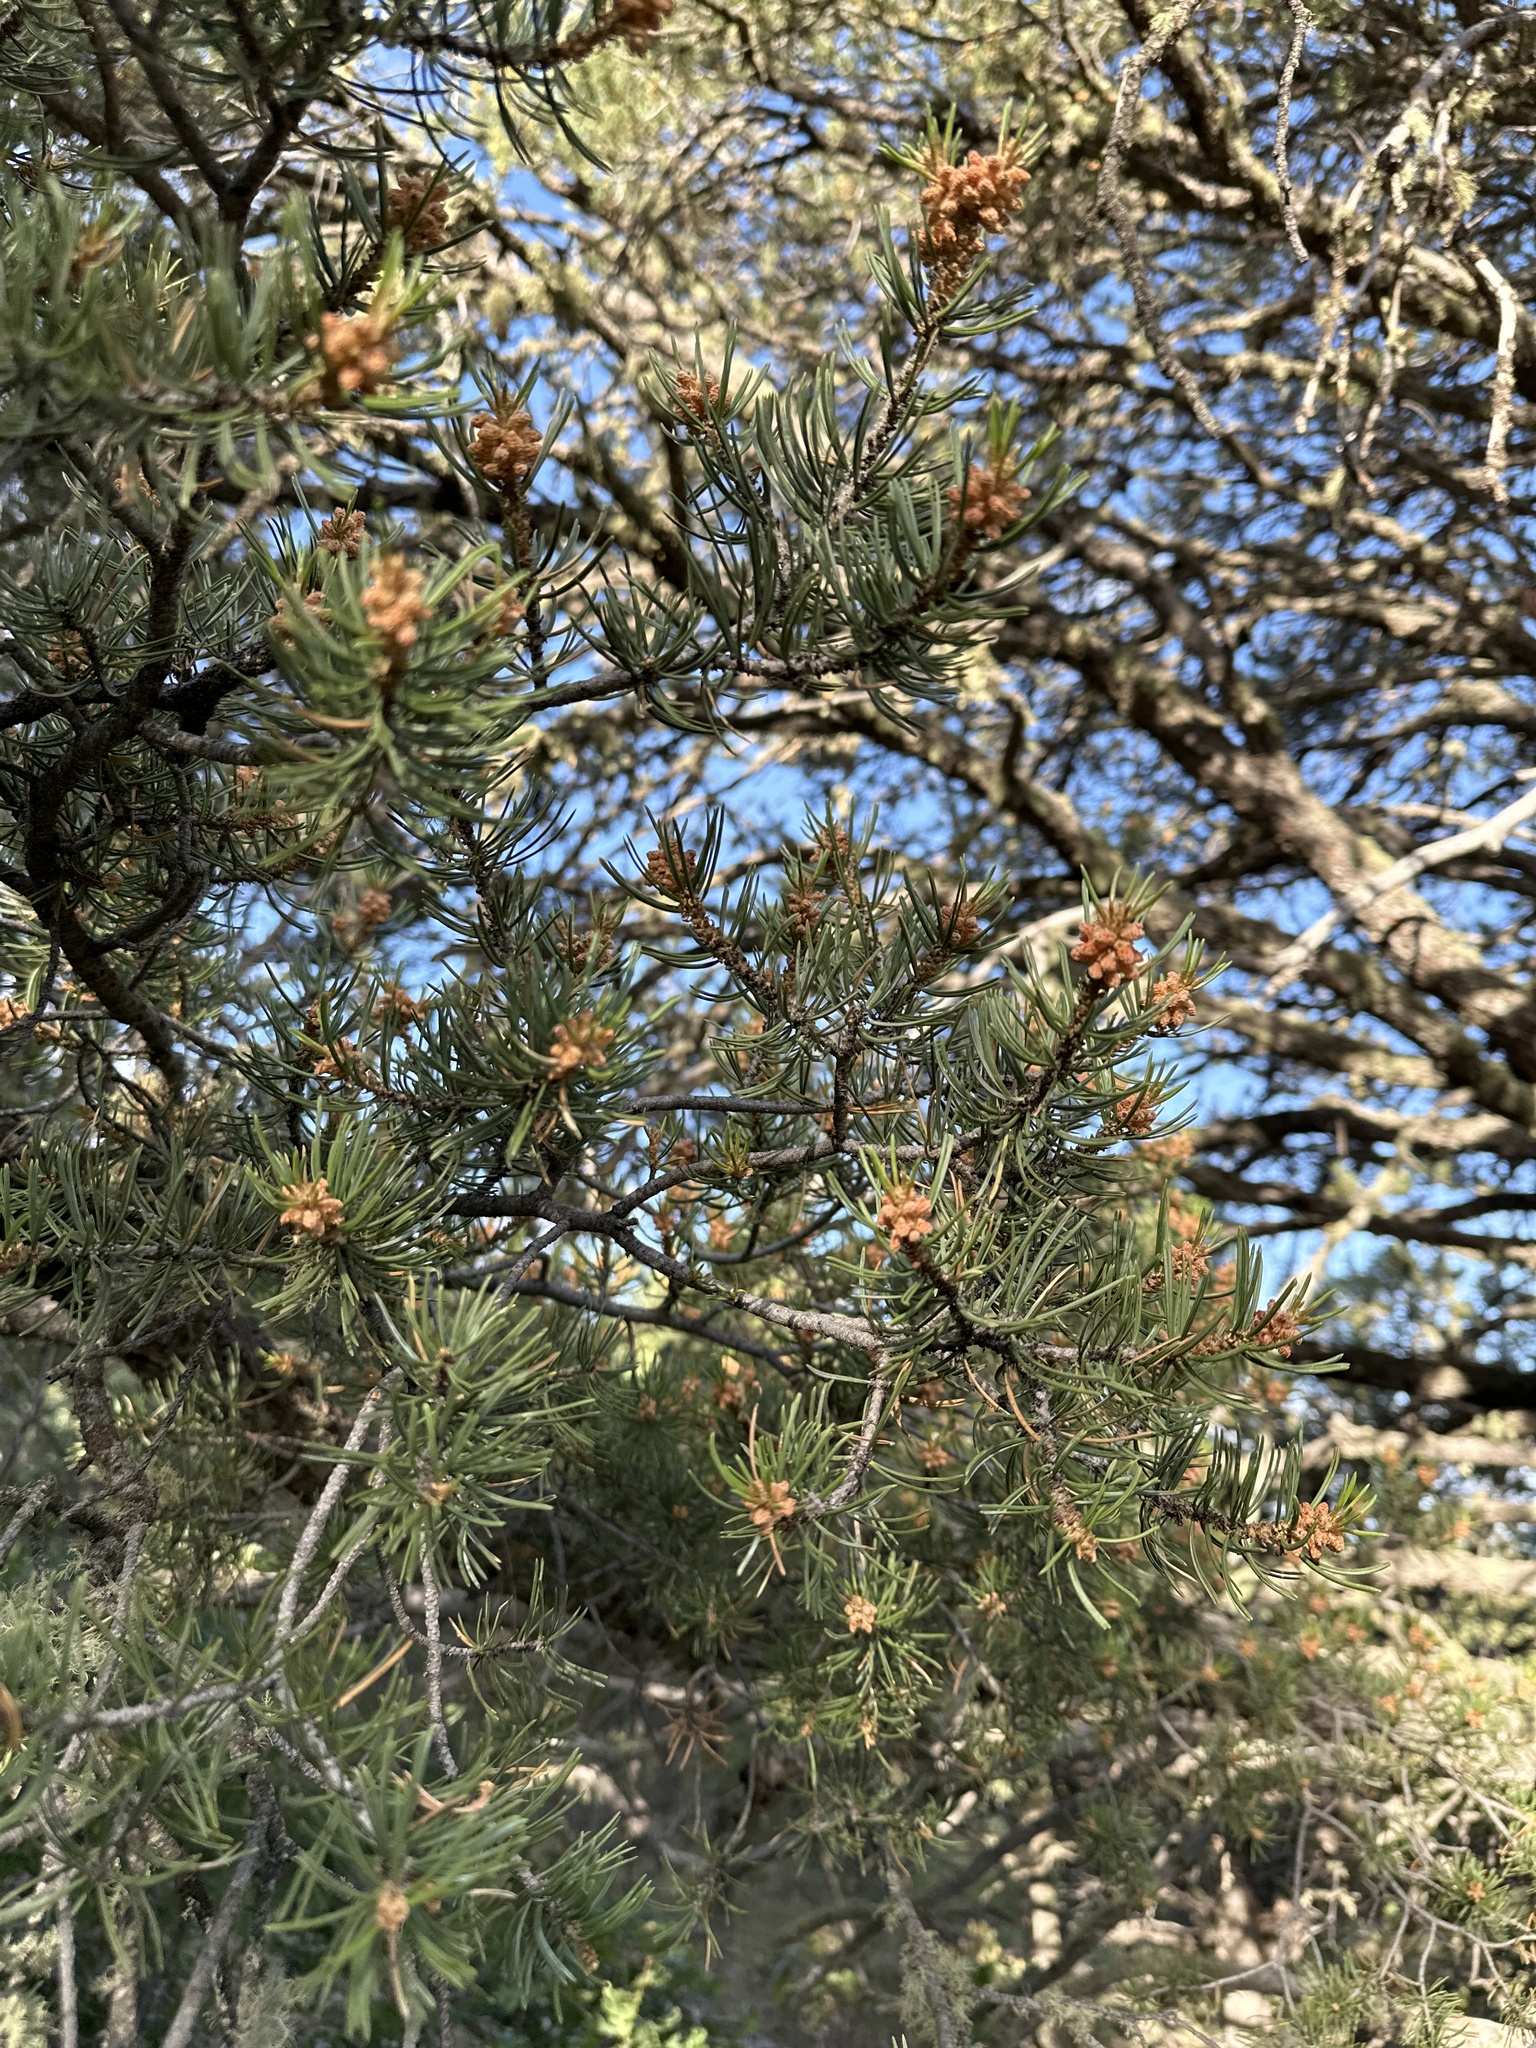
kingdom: Plantae
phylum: Tracheophyta
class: Pinopsida
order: Pinales
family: Pinaceae
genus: Pinus
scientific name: Pinus edulis
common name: Colorado pinyon
